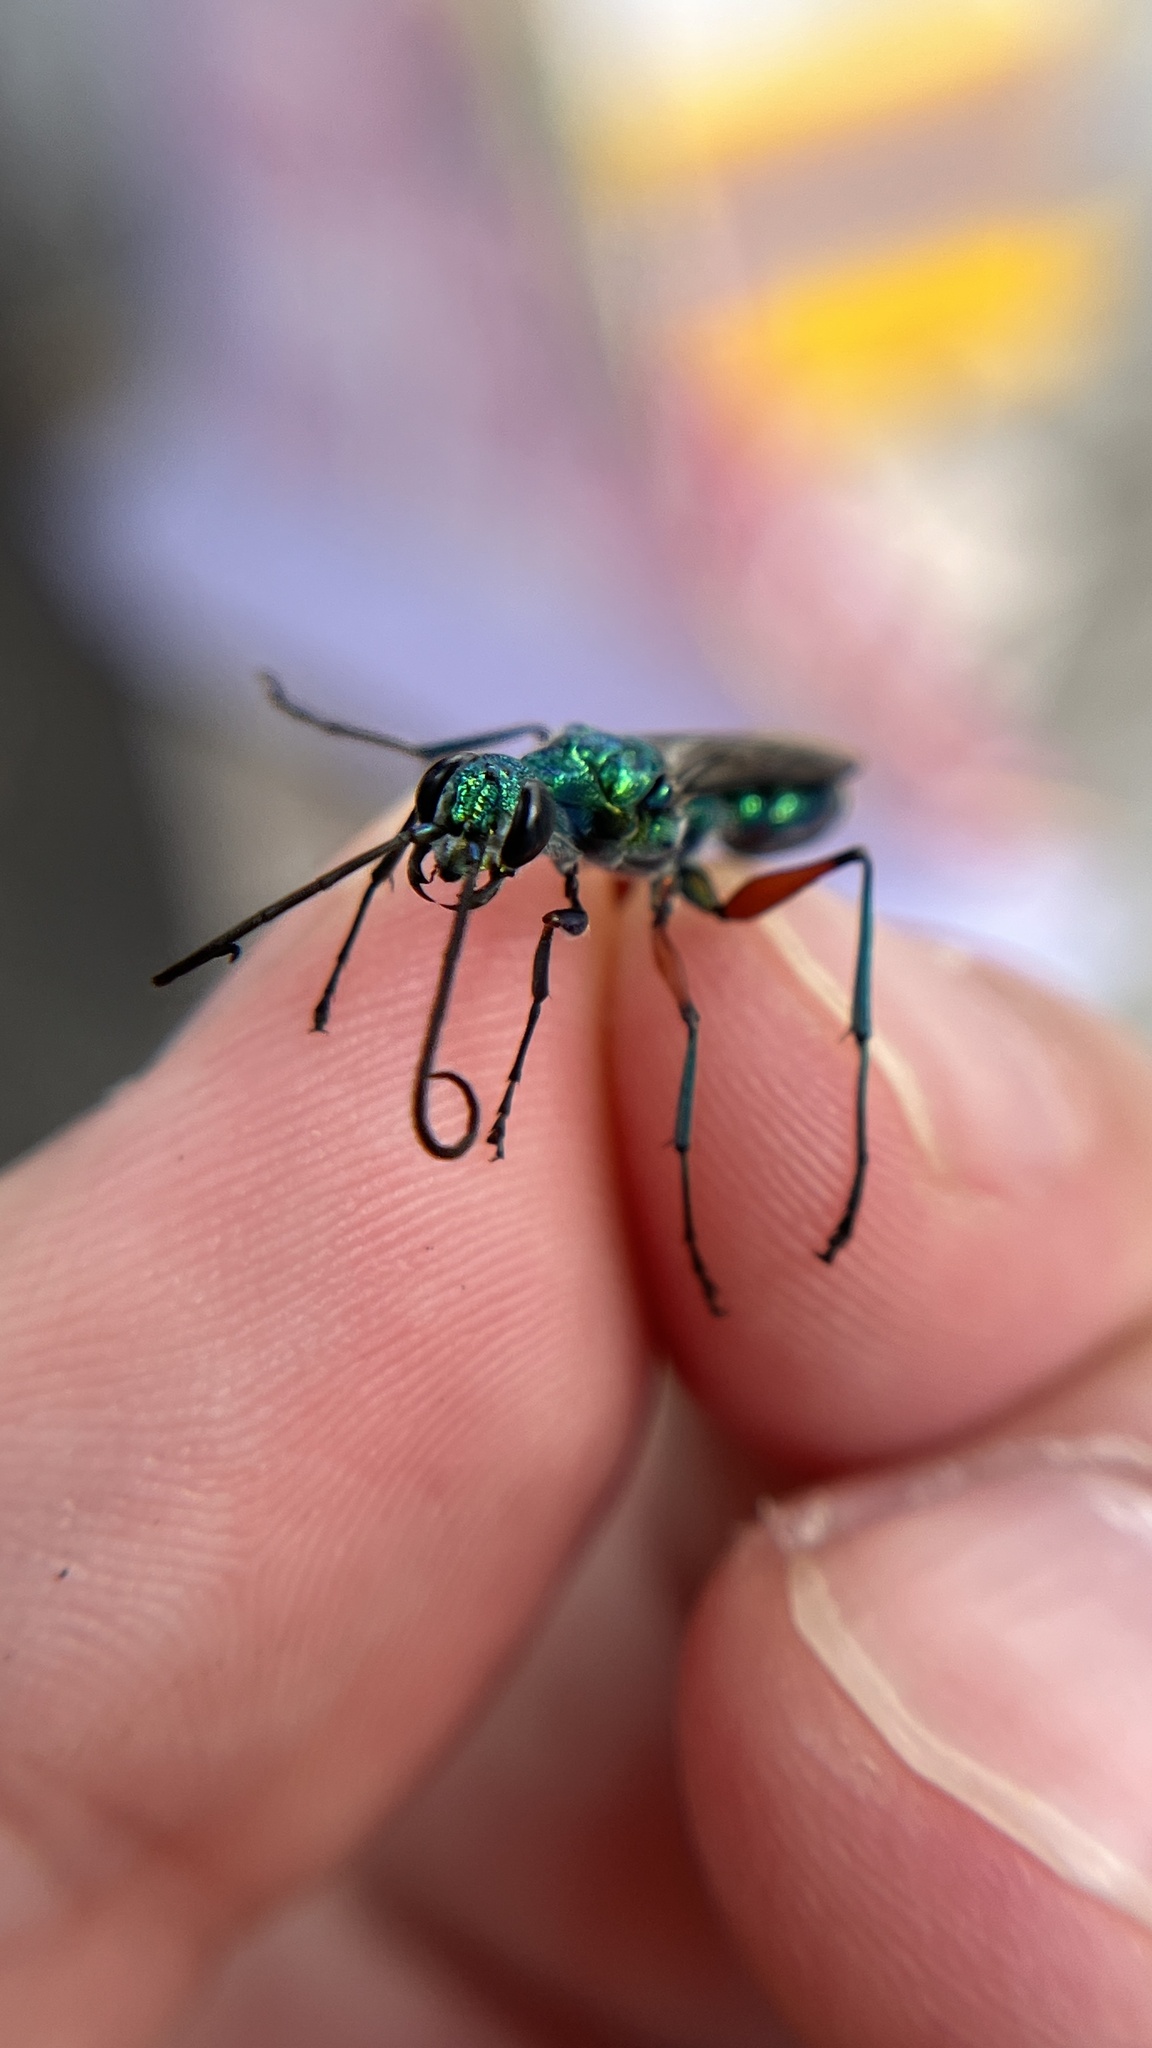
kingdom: Animalia
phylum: Arthropoda
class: Insecta
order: Hymenoptera
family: Ampulicidae
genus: Ampulex
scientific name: Ampulex compressa
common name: Emerald cockroach wasp
